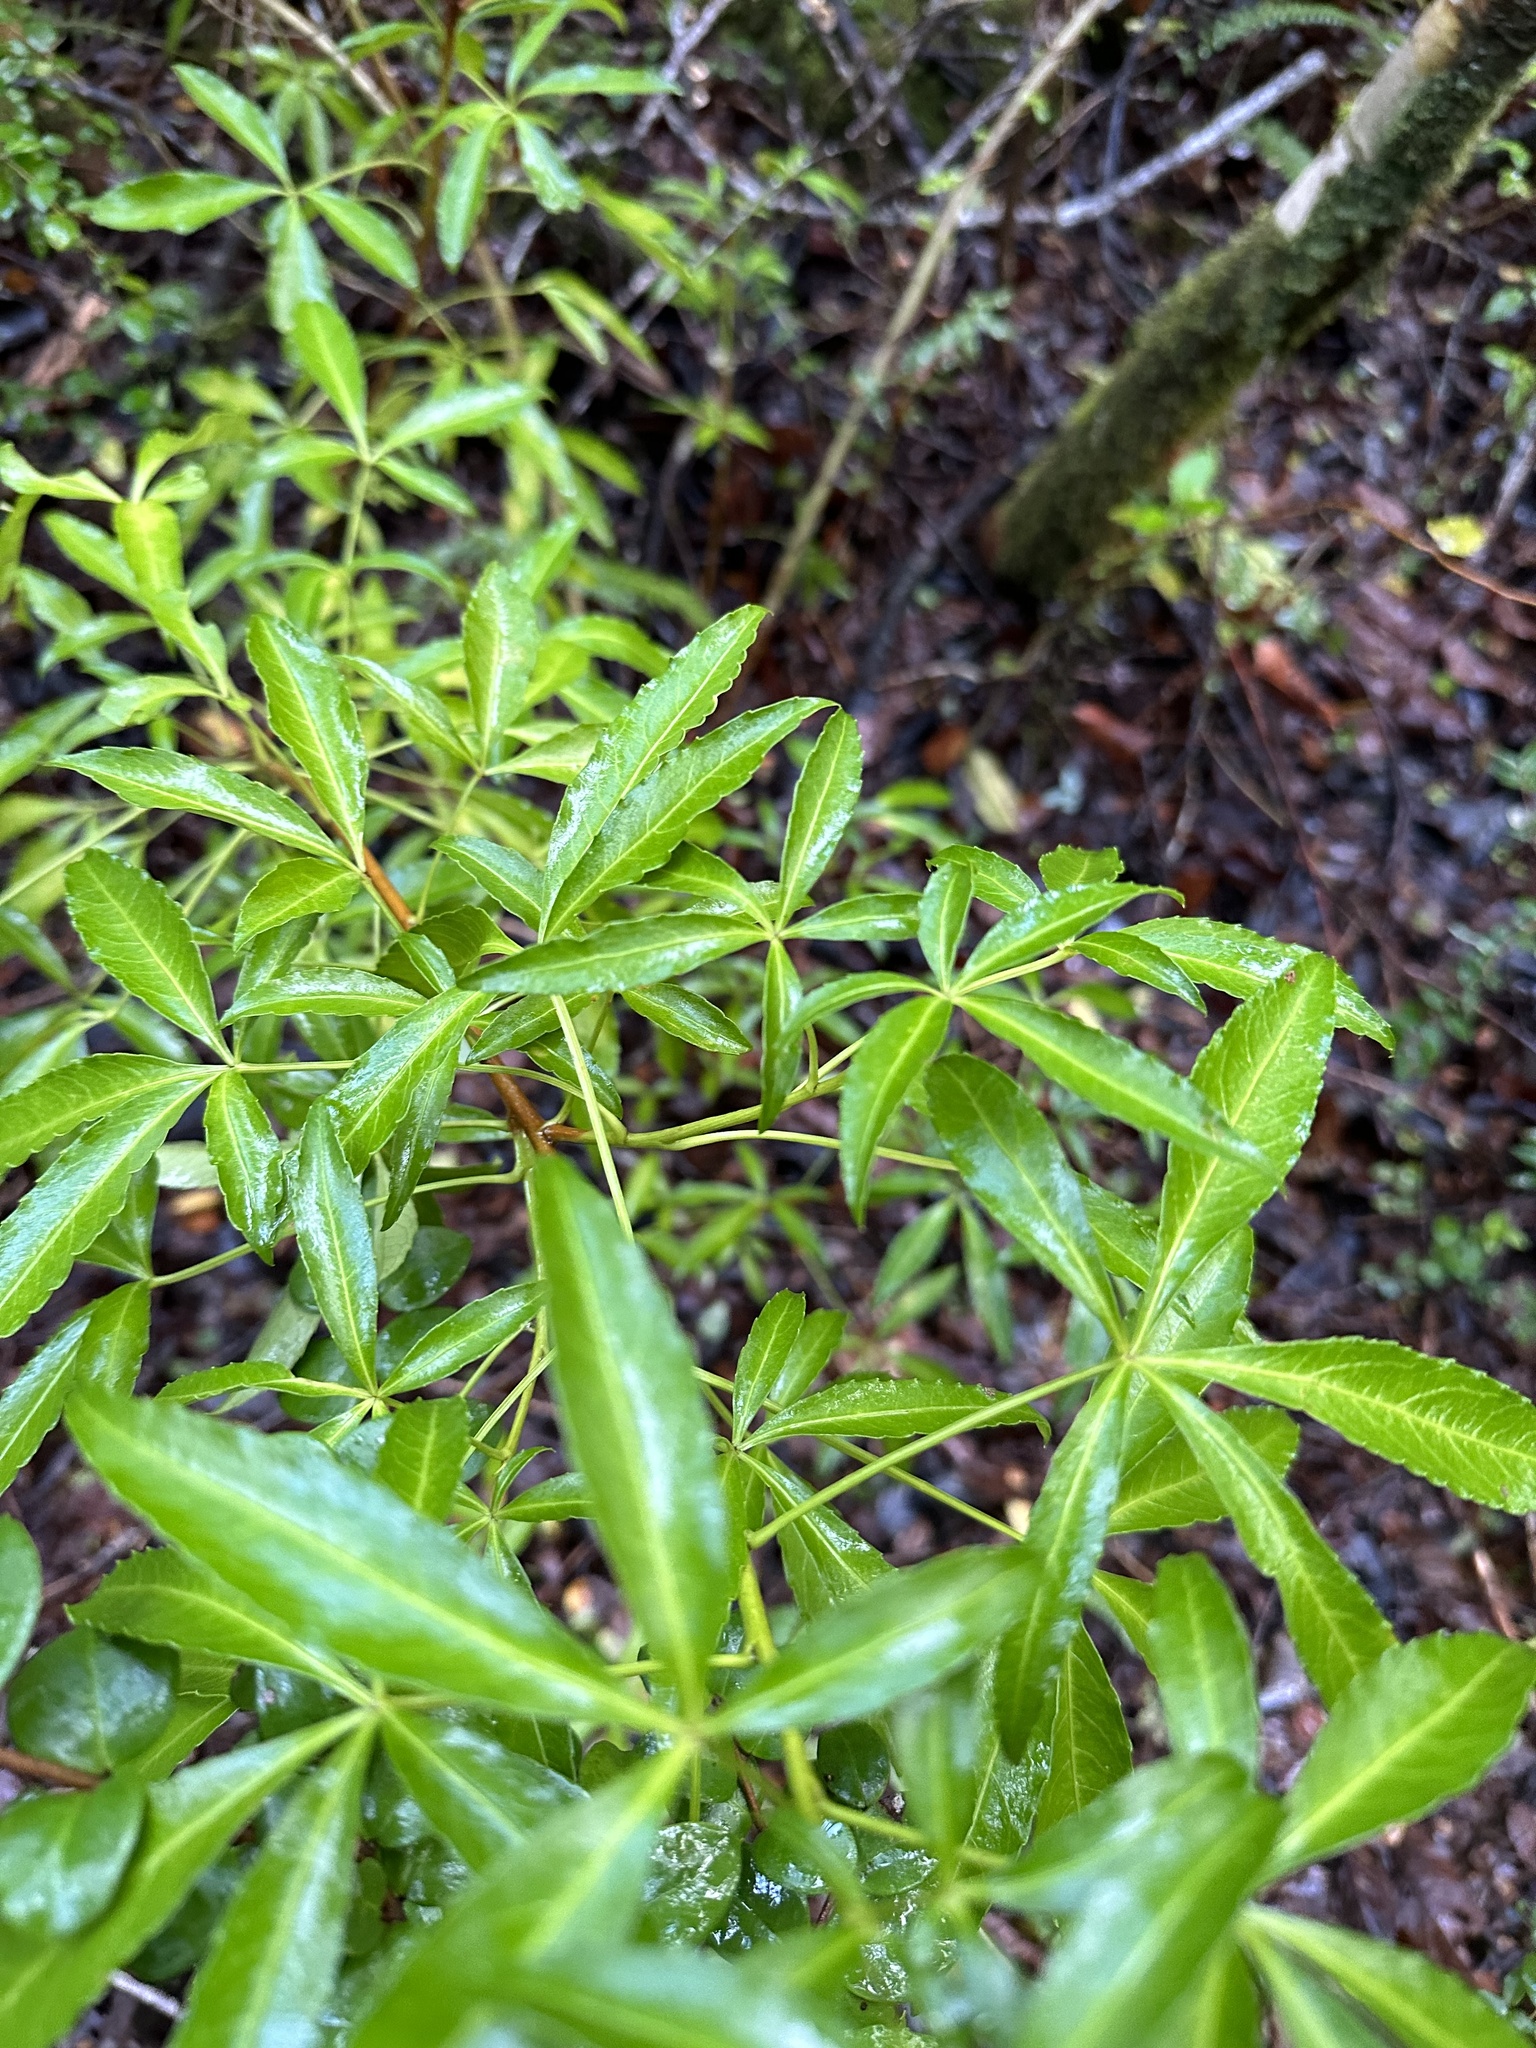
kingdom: Plantae
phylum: Tracheophyta
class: Magnoliopsida
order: Apiales
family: Araliaceae
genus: Raukaua
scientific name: Raukaua laetevirens
